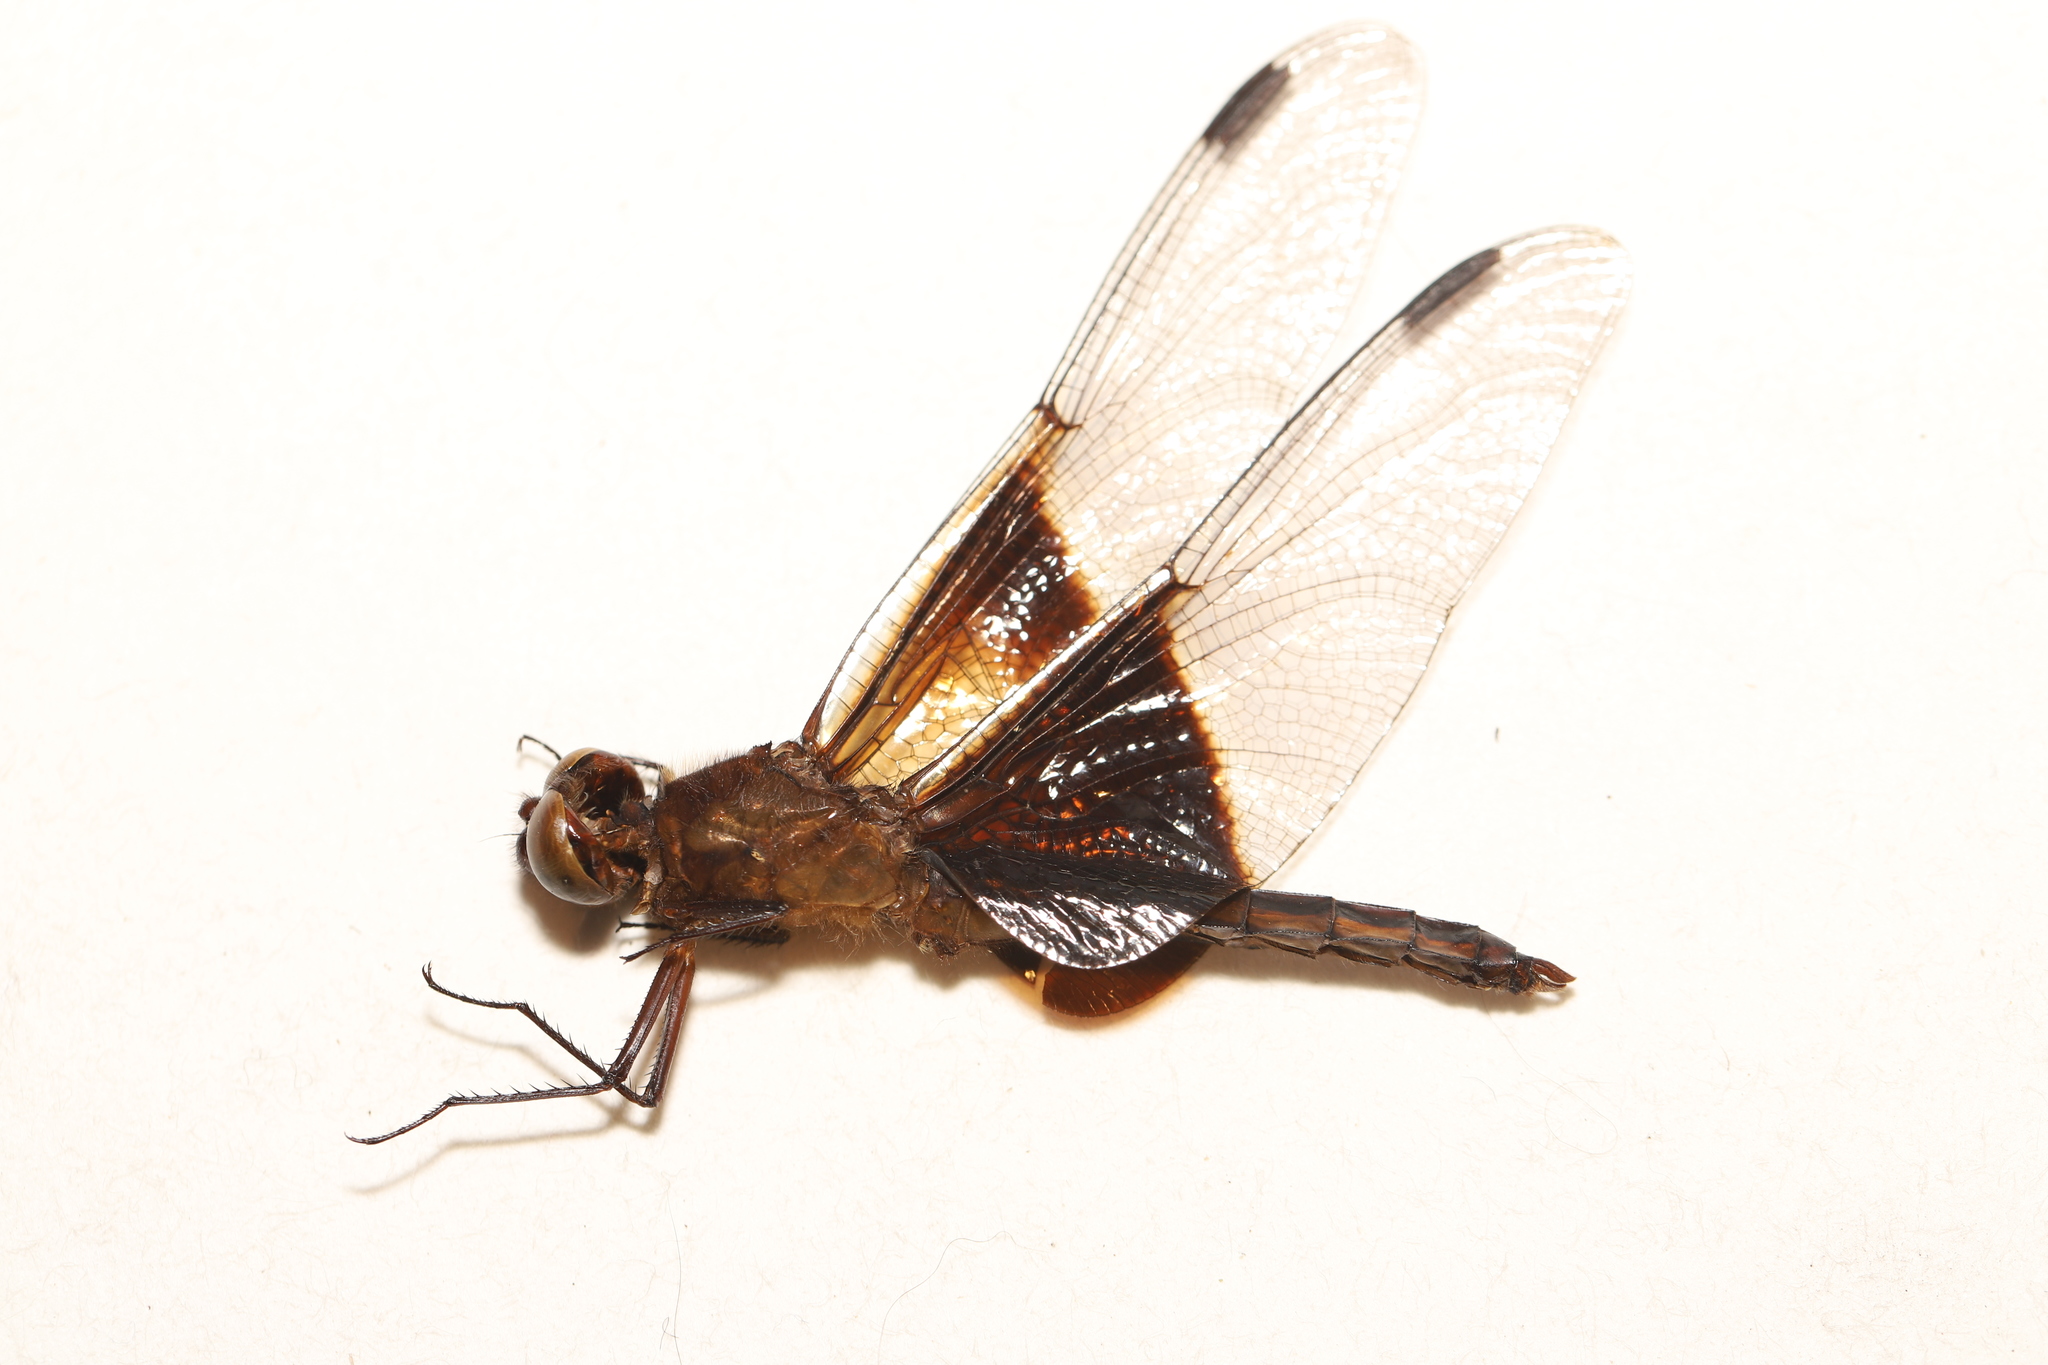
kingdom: Animalia
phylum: Arthropoda
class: Insecta
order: Odonata
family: Libellulidae
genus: Libellula
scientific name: Libellula luctuosa
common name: Widow skimmer
